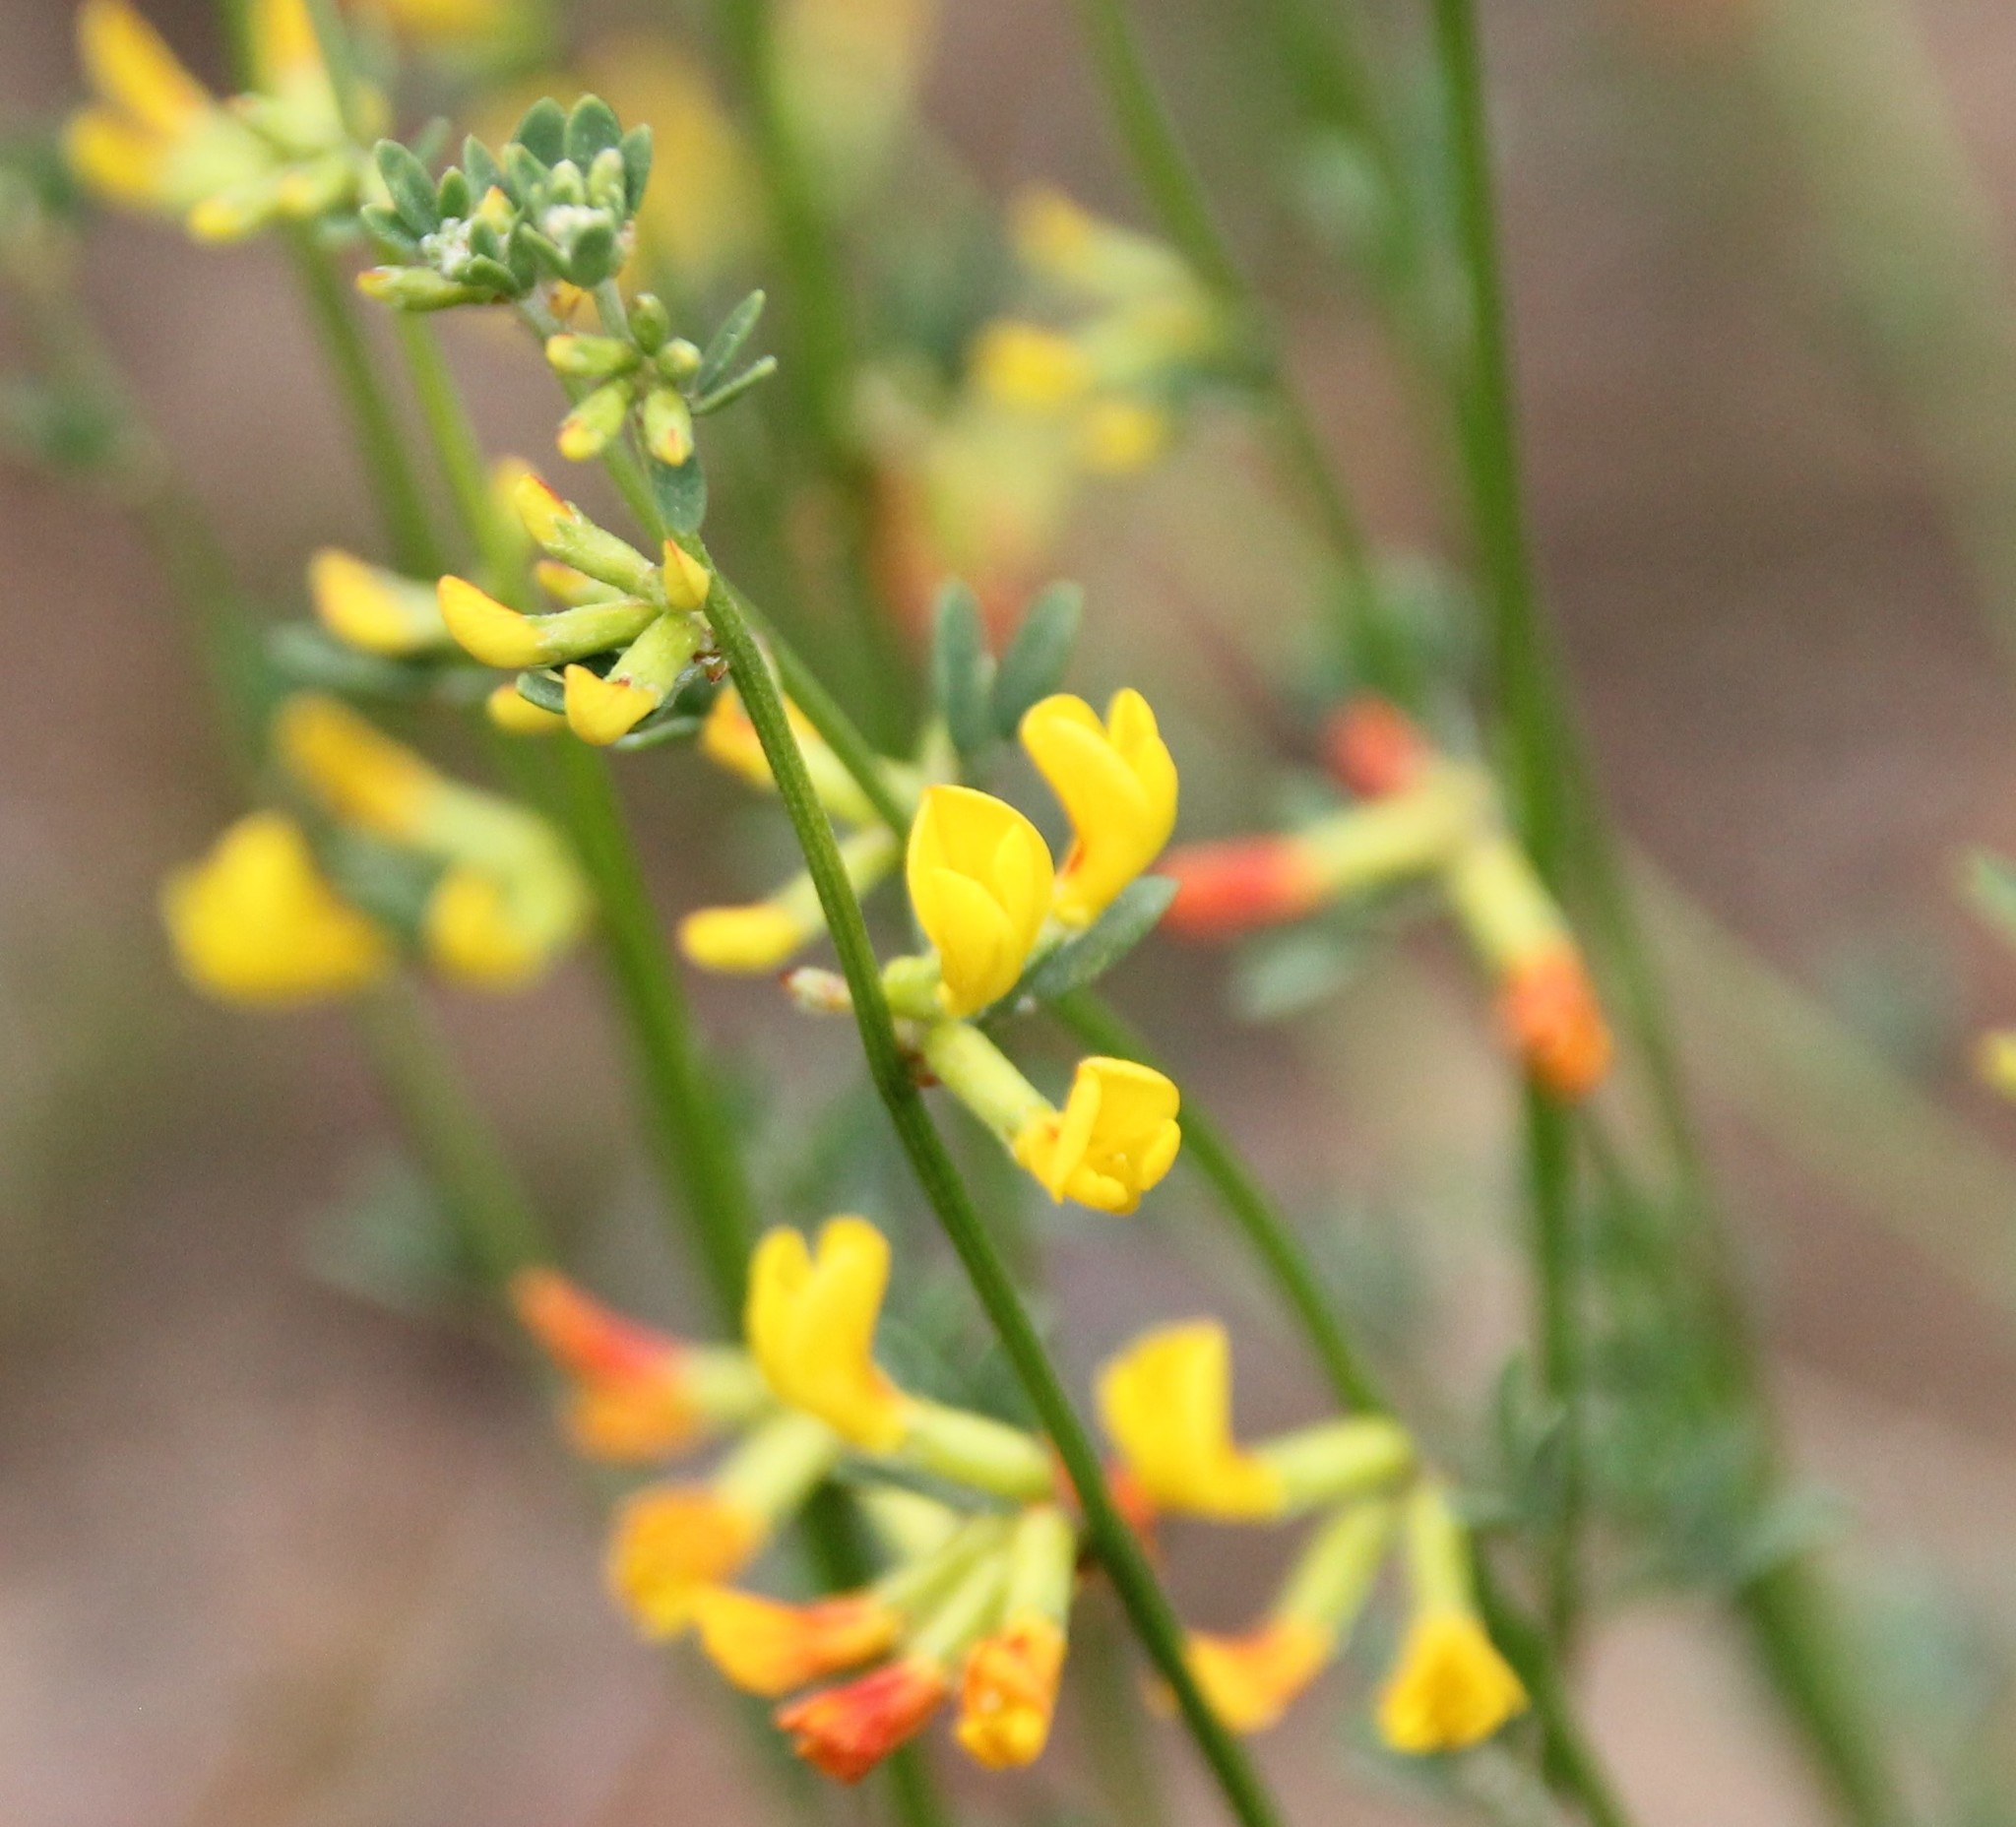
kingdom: Plantae
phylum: Tracheophyta
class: Magnoliopsida
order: Fabales
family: Fabaceae
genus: Acmispon
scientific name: Acmispon glaber
